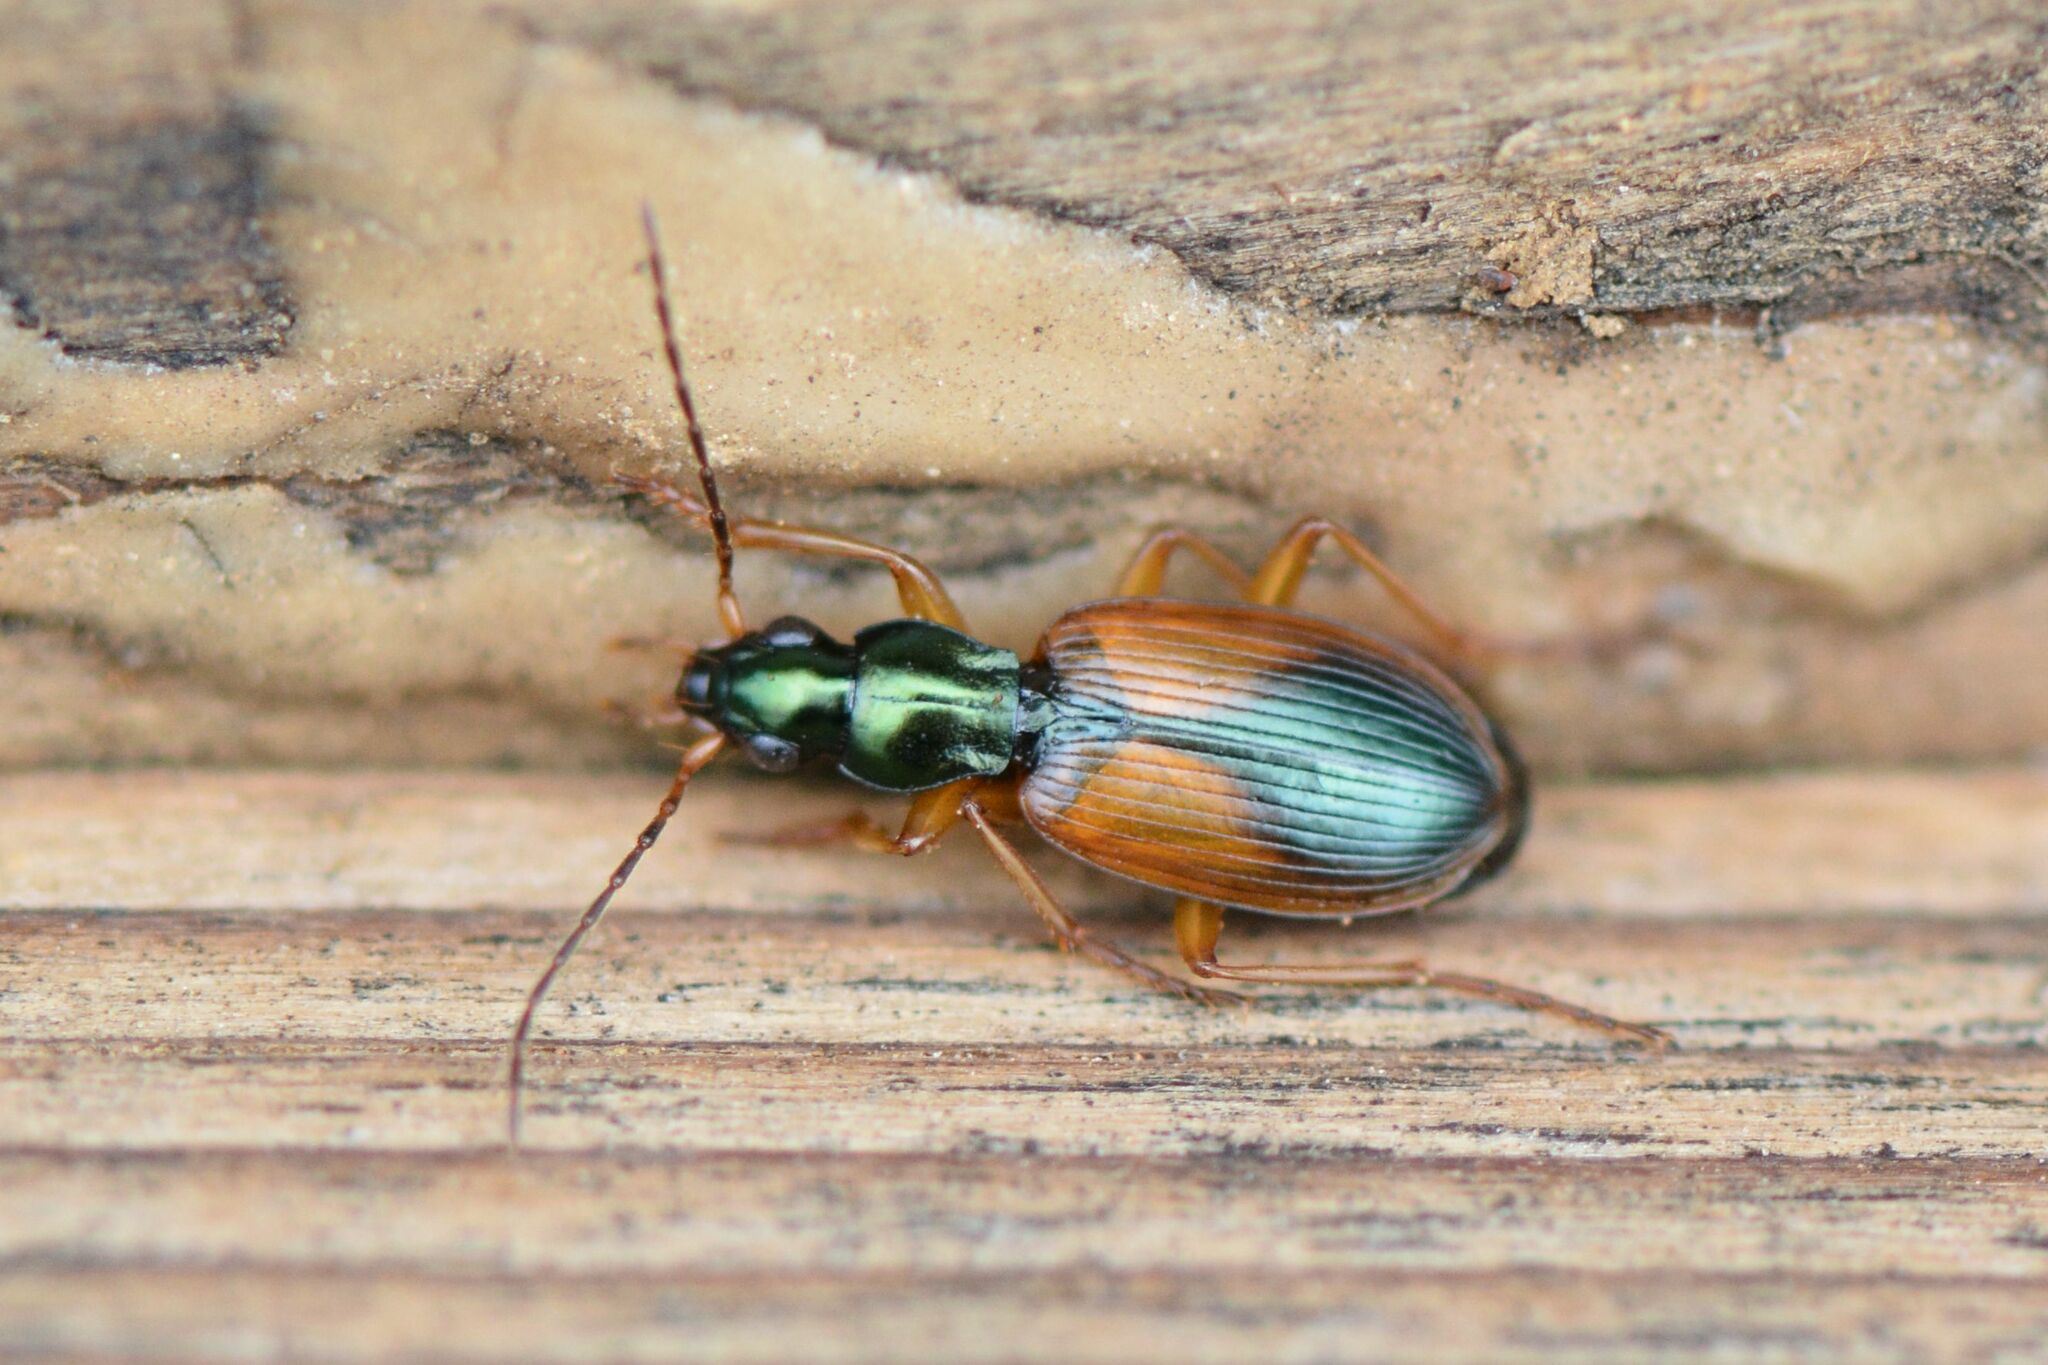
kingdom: Animalia
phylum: Arthropoda
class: Insecta
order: Coleoptera
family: Carabidae
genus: Anchomenus
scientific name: Anchomenus dorsalis
